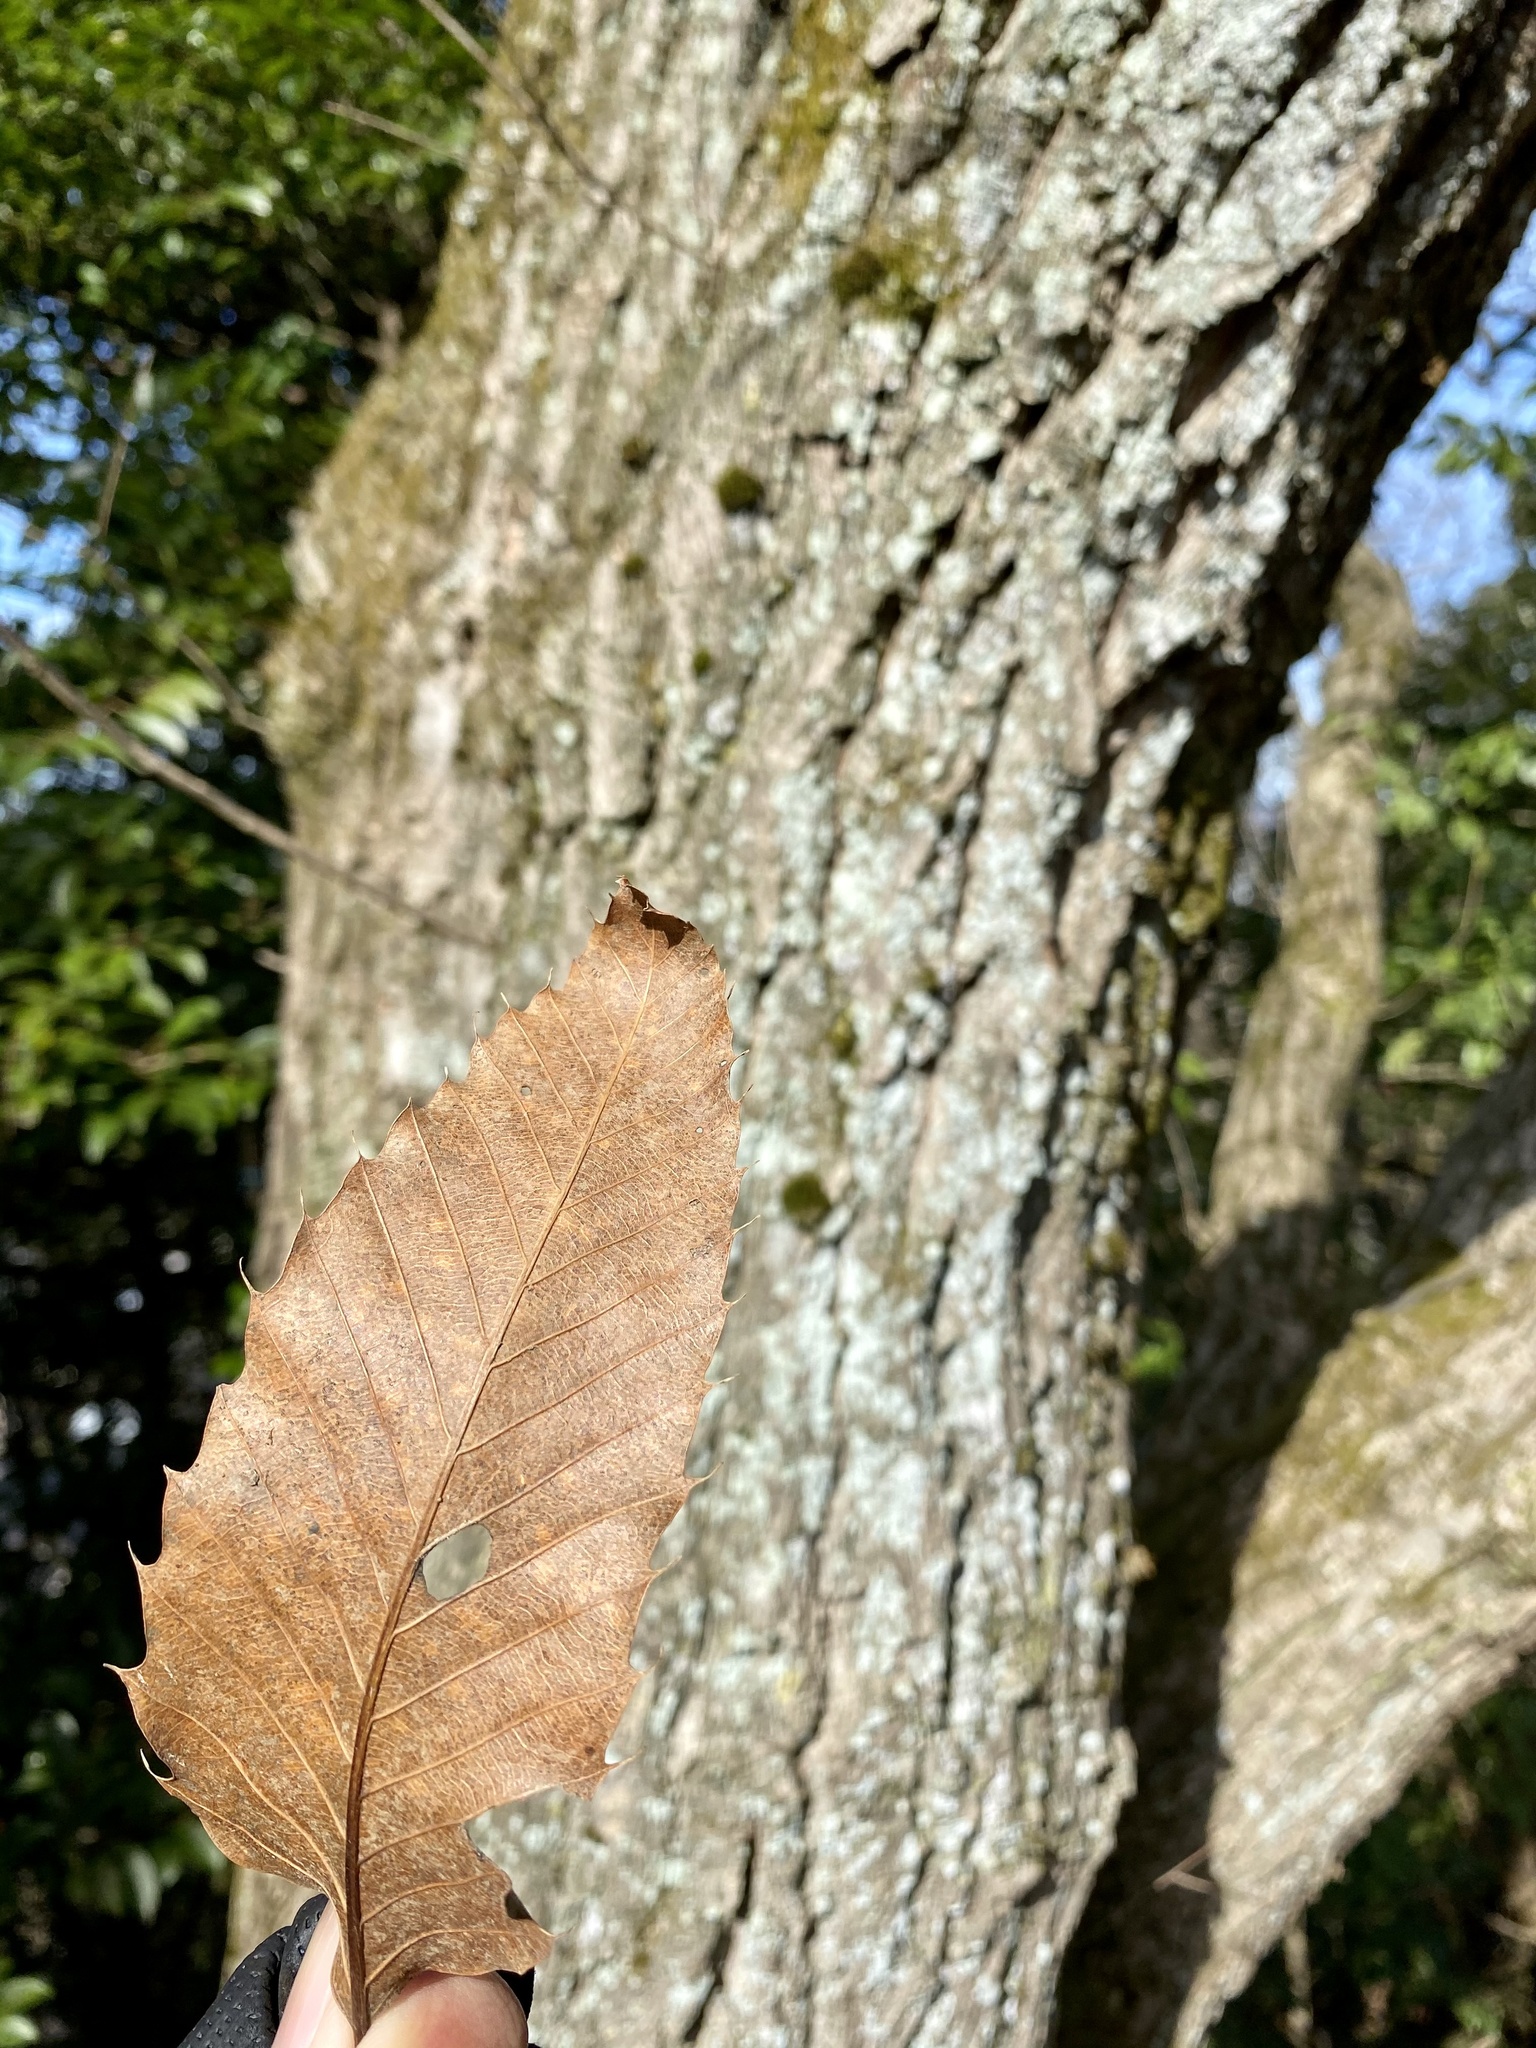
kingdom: Plantae
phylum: Tracheophyta
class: Magnoliopsida
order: Fagales
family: Fagaceae
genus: Quercus
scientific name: Quercus acutissima
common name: Sawtooth oak
